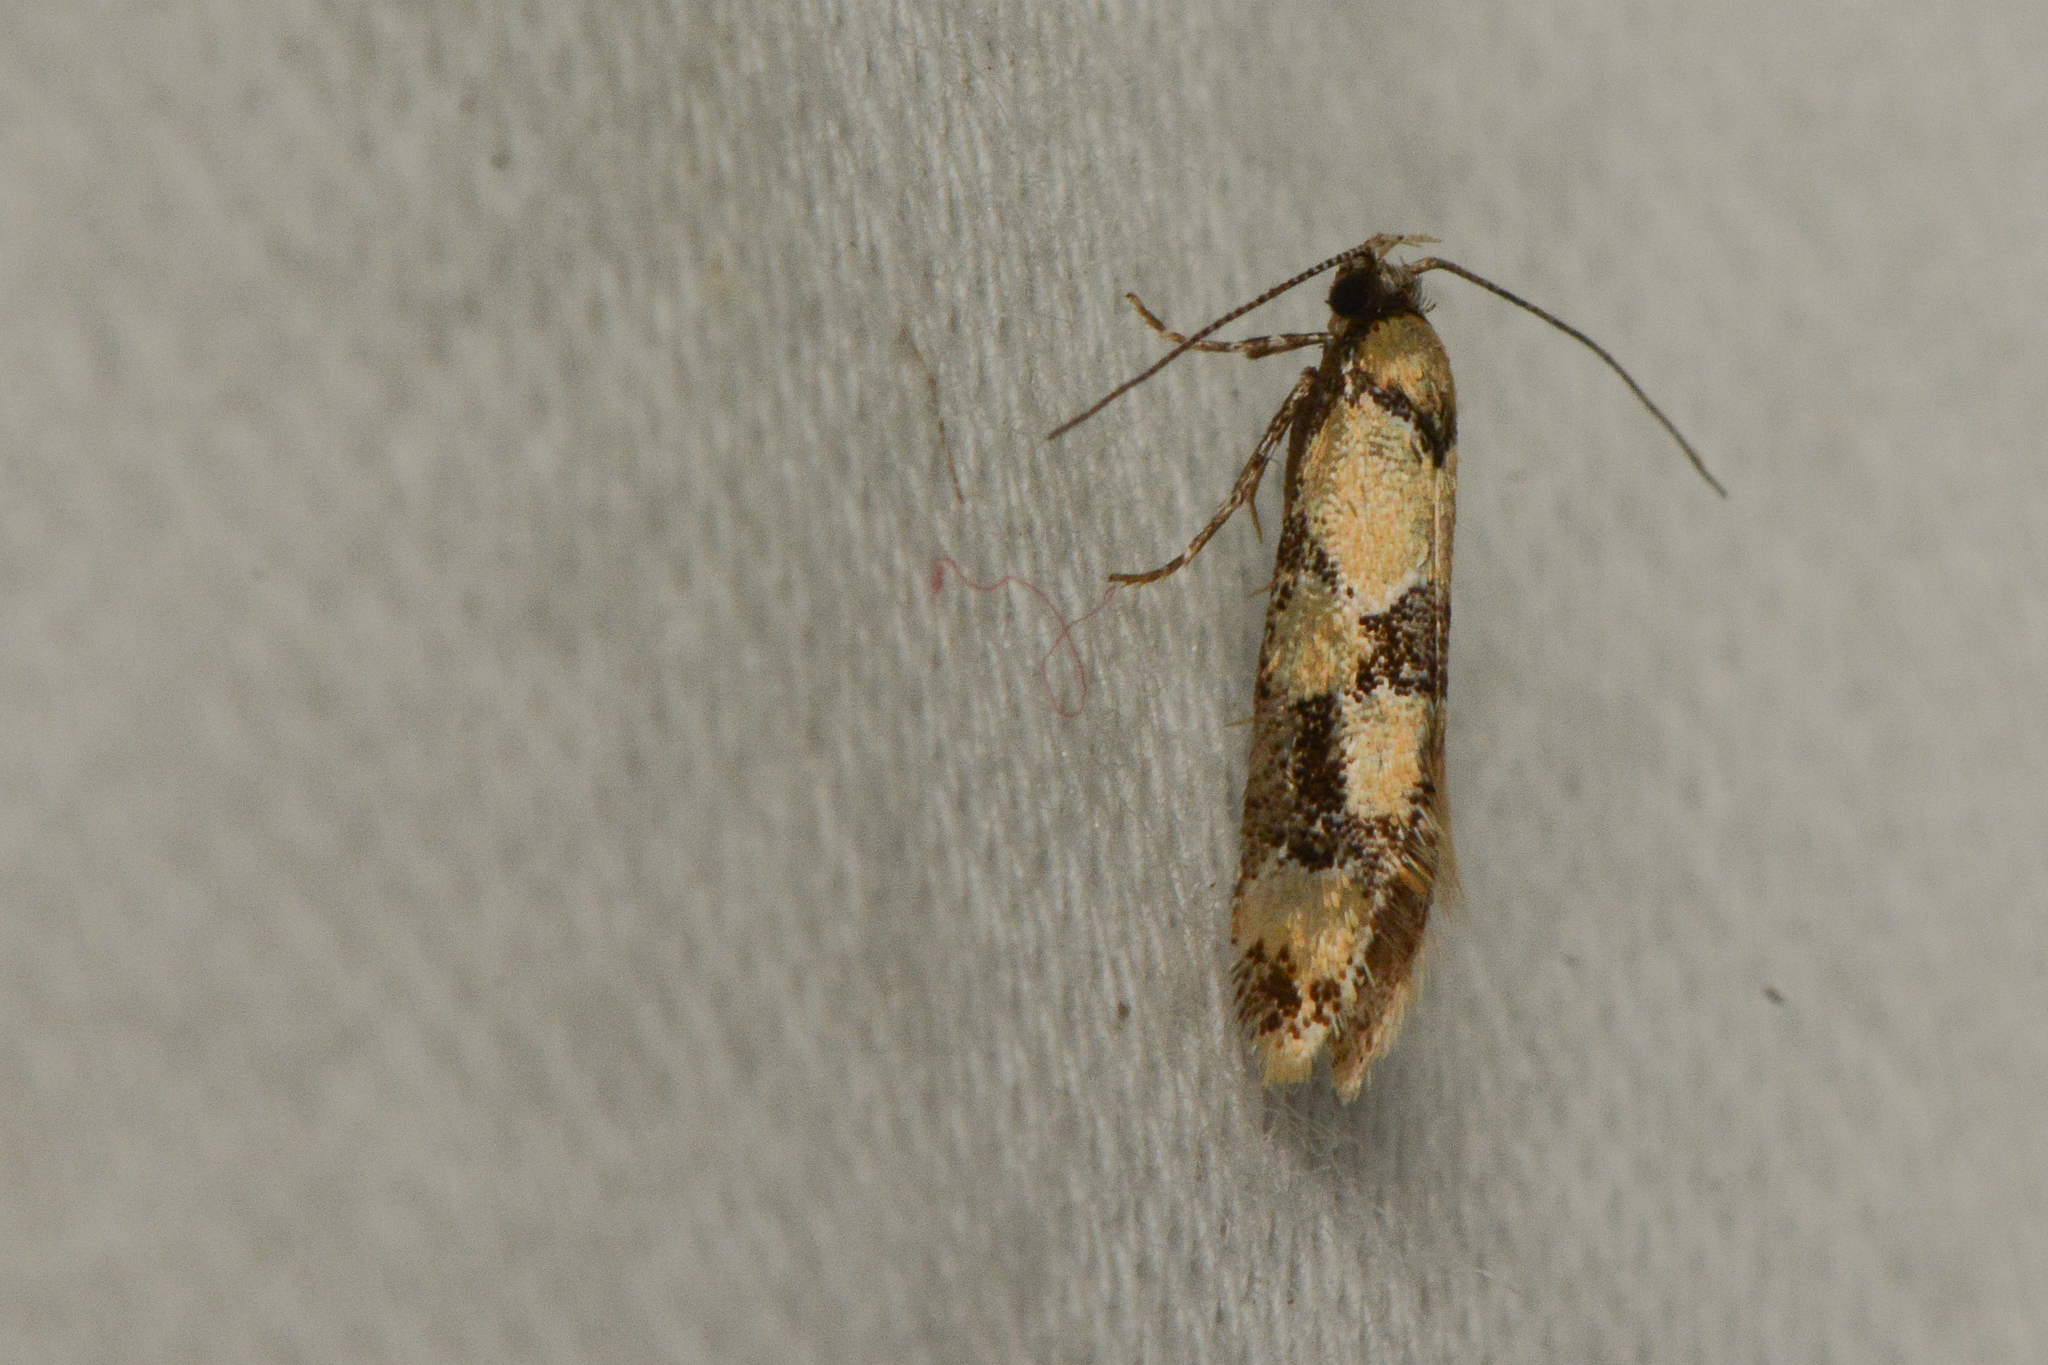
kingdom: Animalia
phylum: Arthropoda
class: Insecta
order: Lepidoptera
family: Oecophoridae
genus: Decantha
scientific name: Decantha stonda
